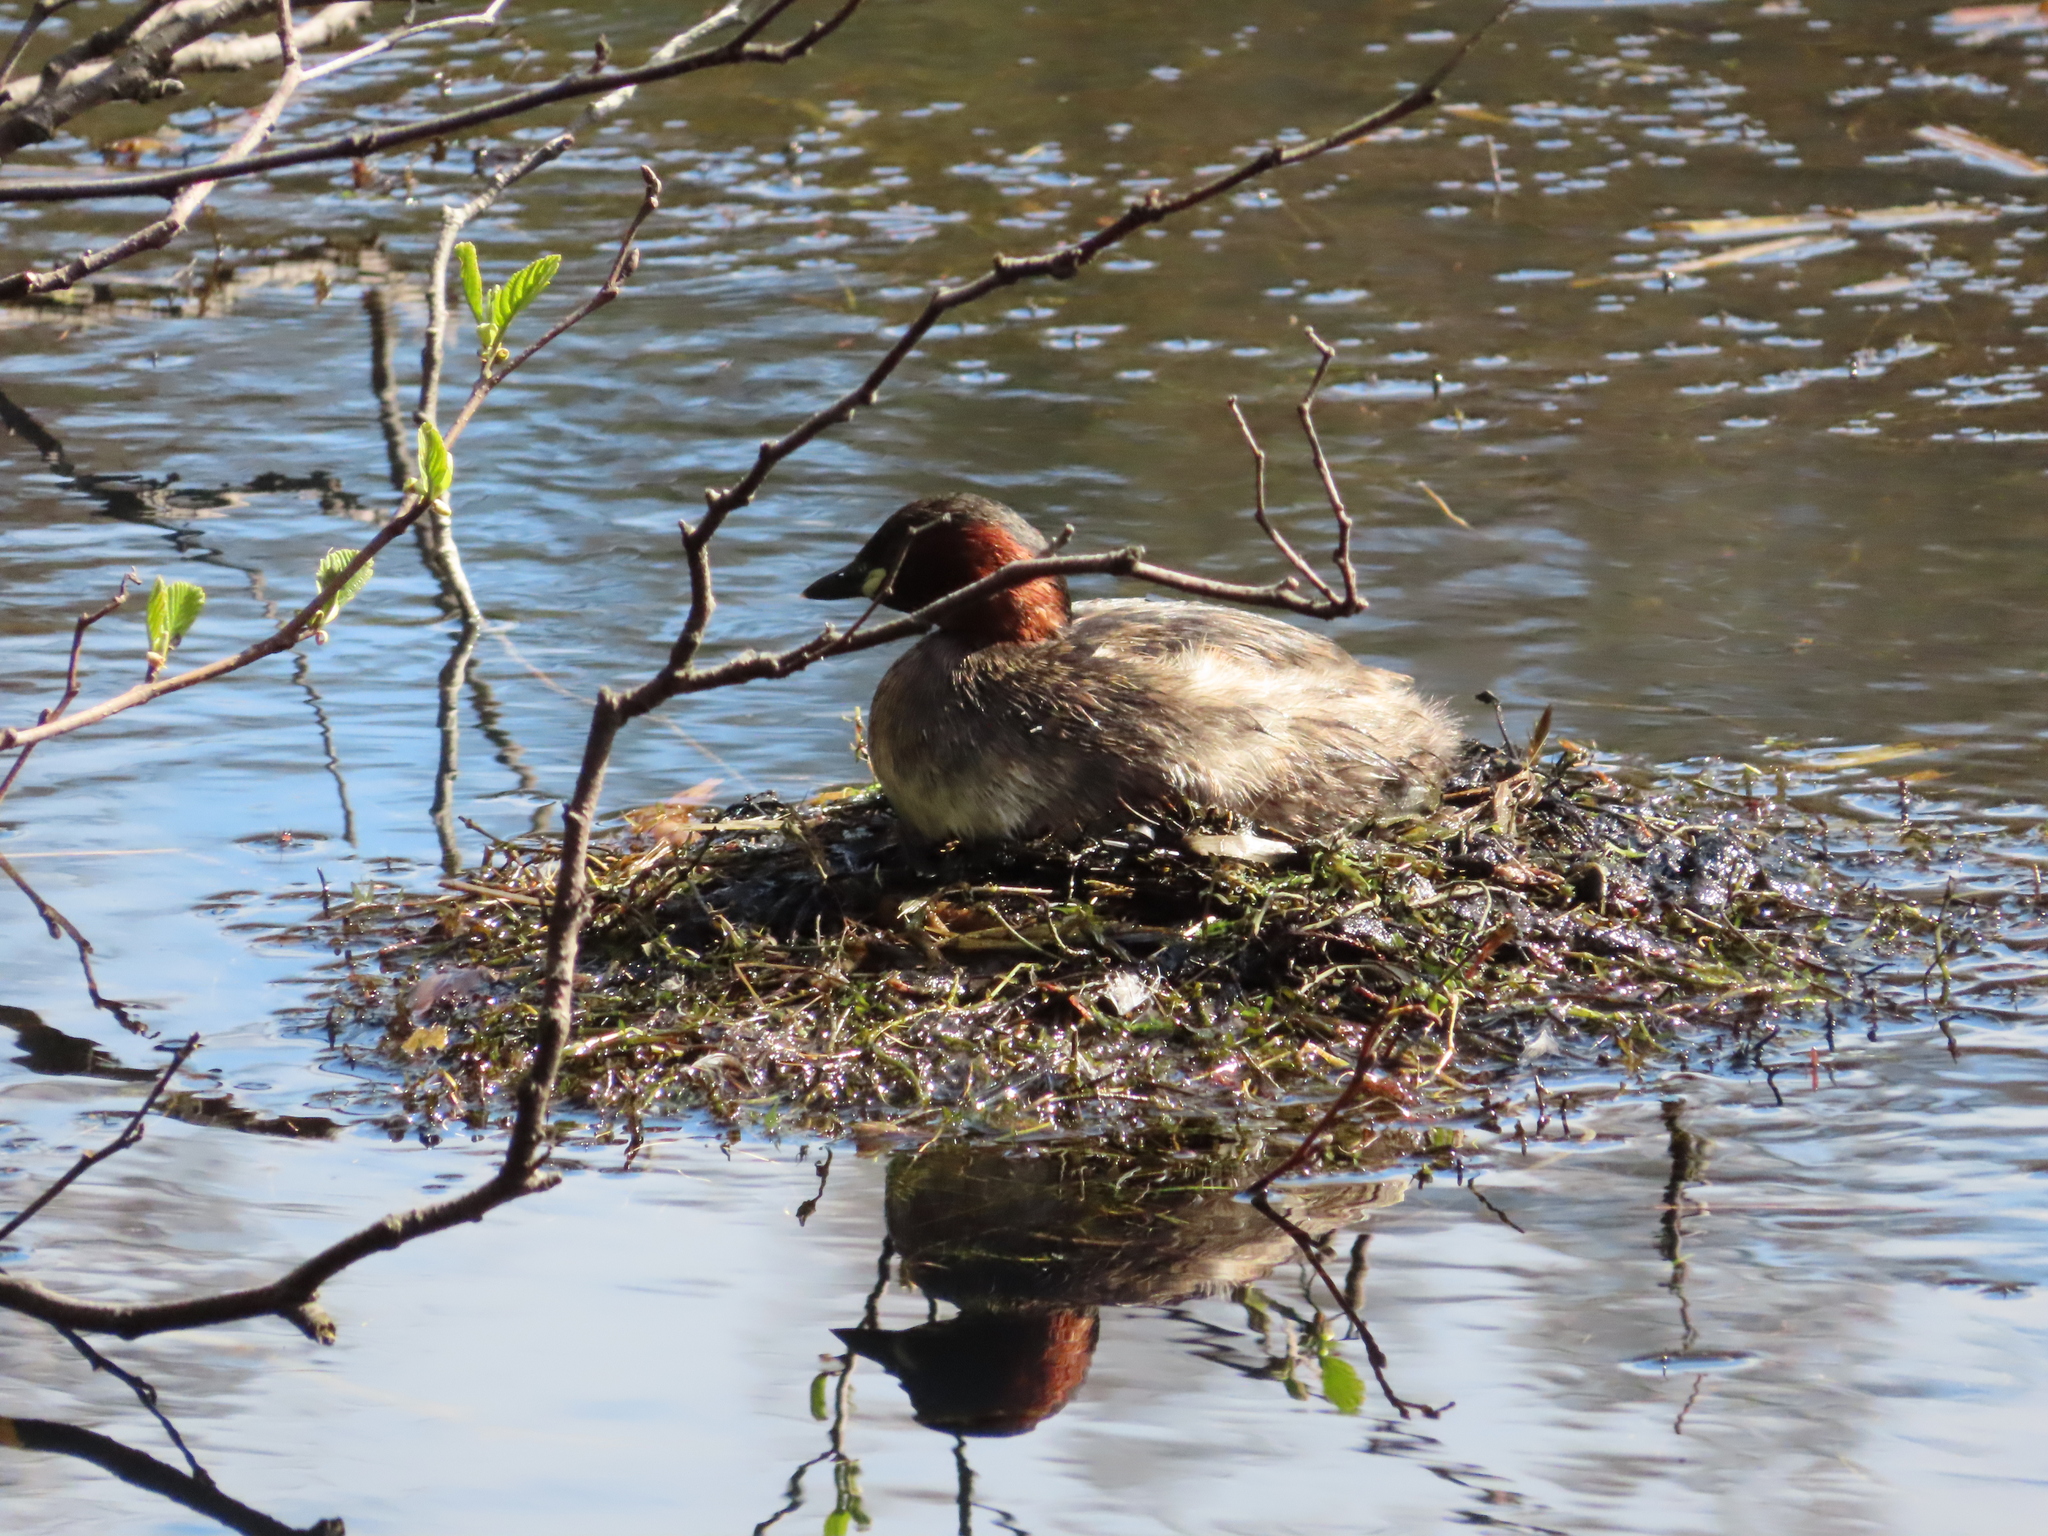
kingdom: Animalia
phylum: Chordata
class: Aves
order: Podicipediformes
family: Podicipedidae
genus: Tachybaptus
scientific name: Tachybaptus ruficollis
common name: Little grebe
